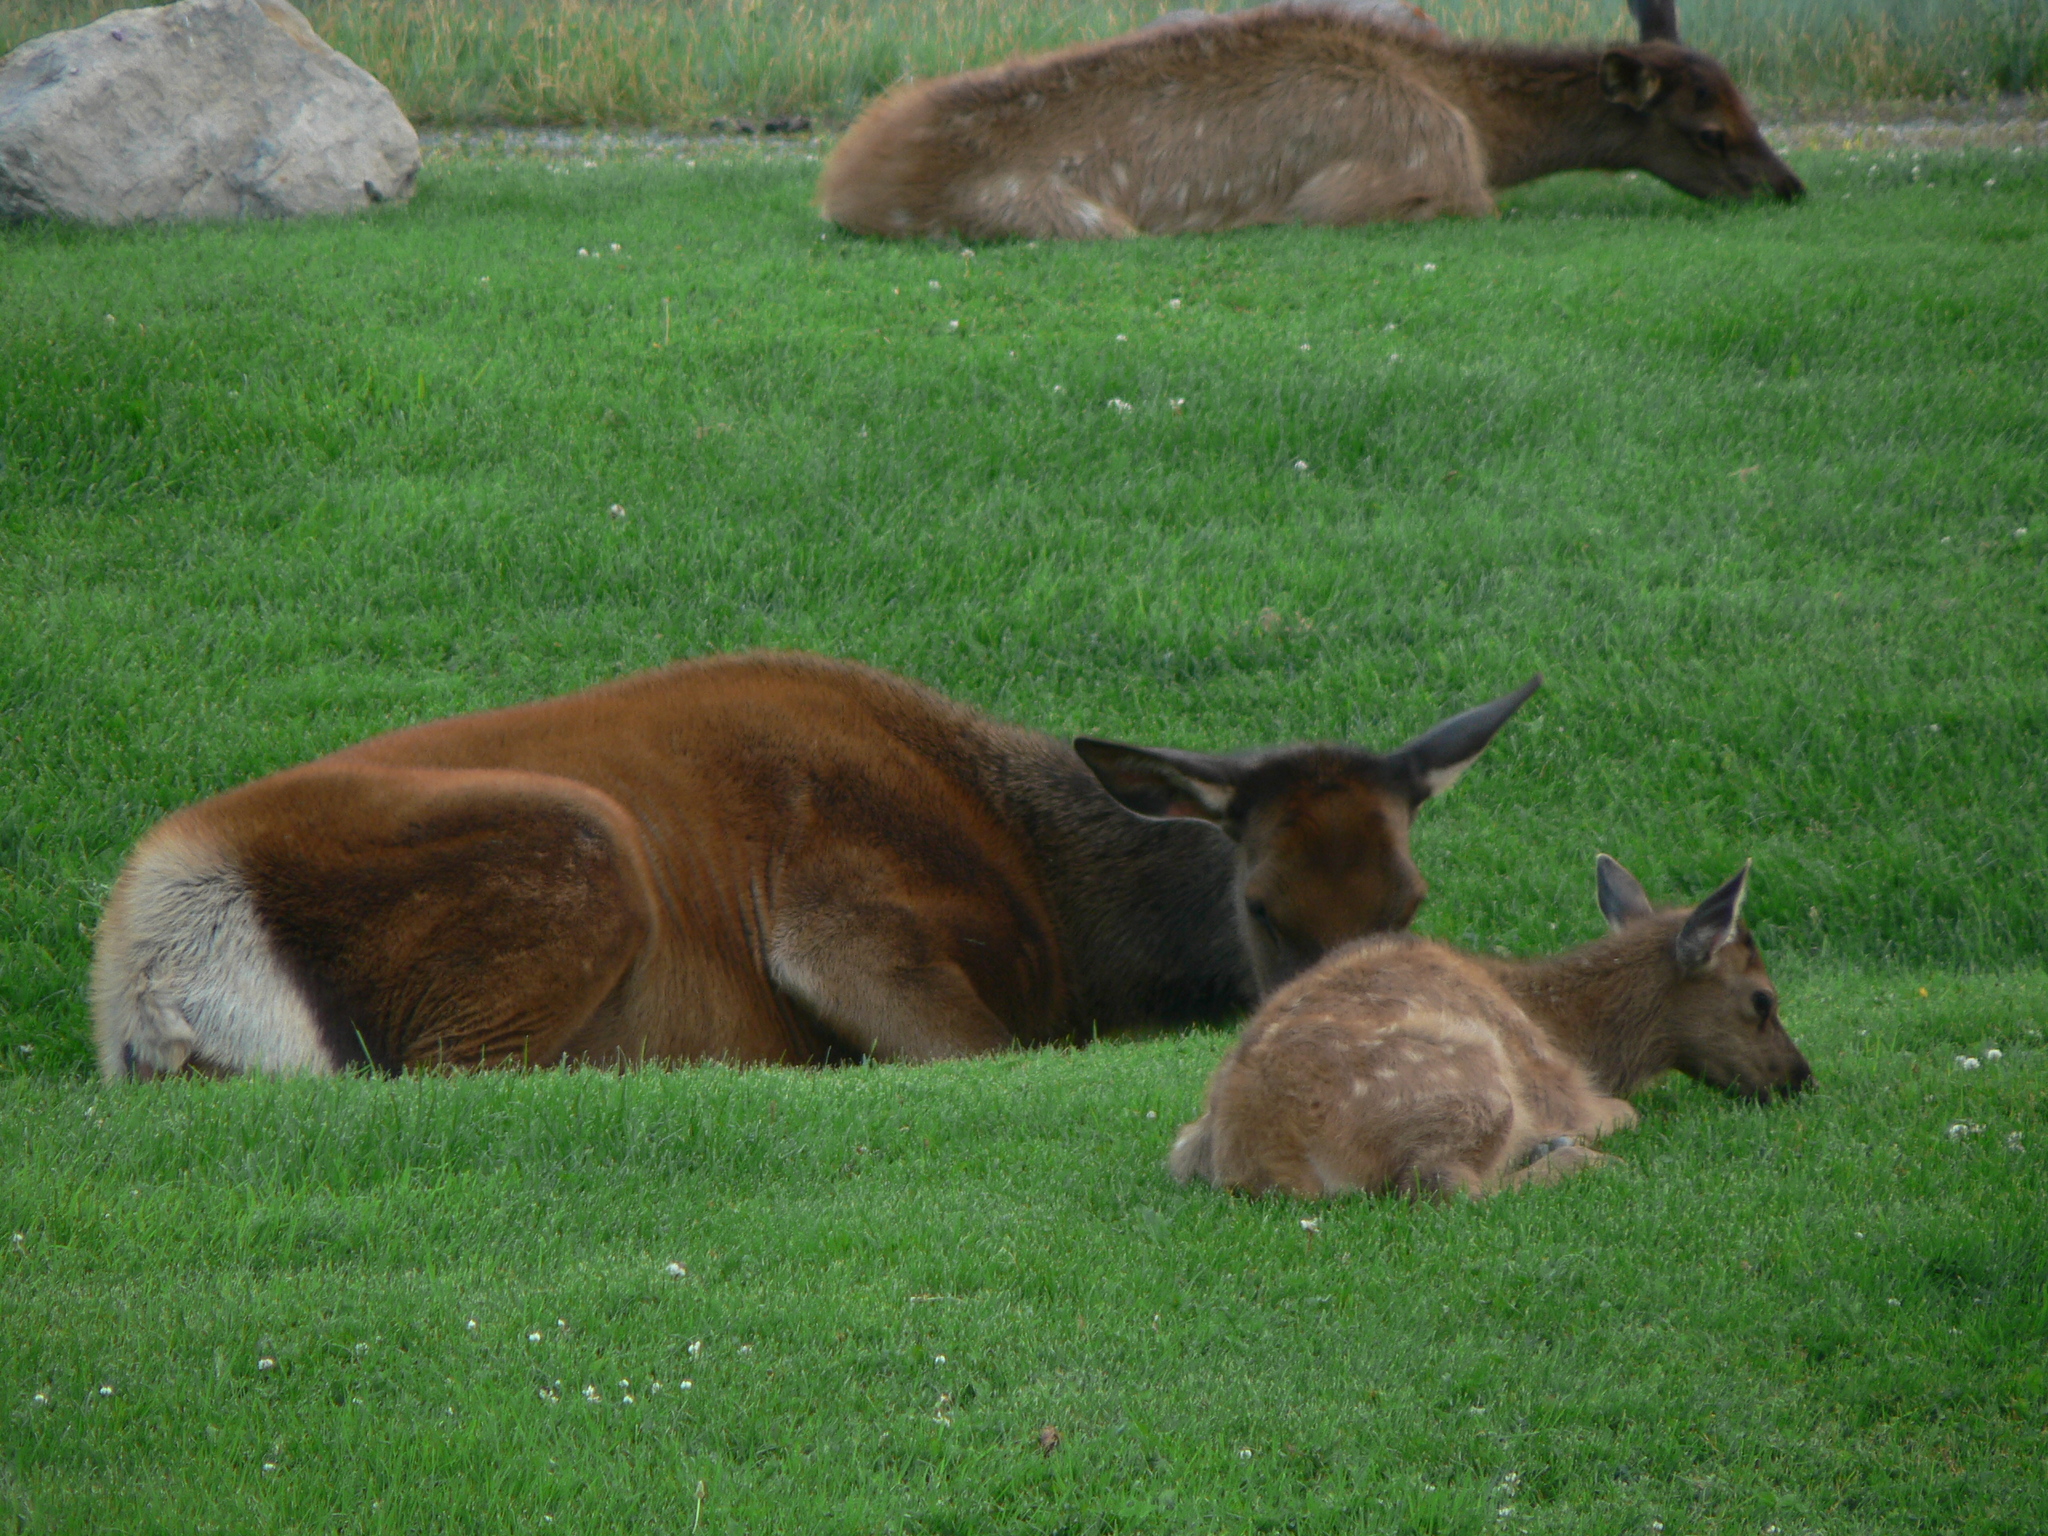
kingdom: Animalia
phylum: Chordata
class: Mammalia
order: Artiodactyla
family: Cervidae
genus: Cervus
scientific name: Cervus elaphus
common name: Red deer
